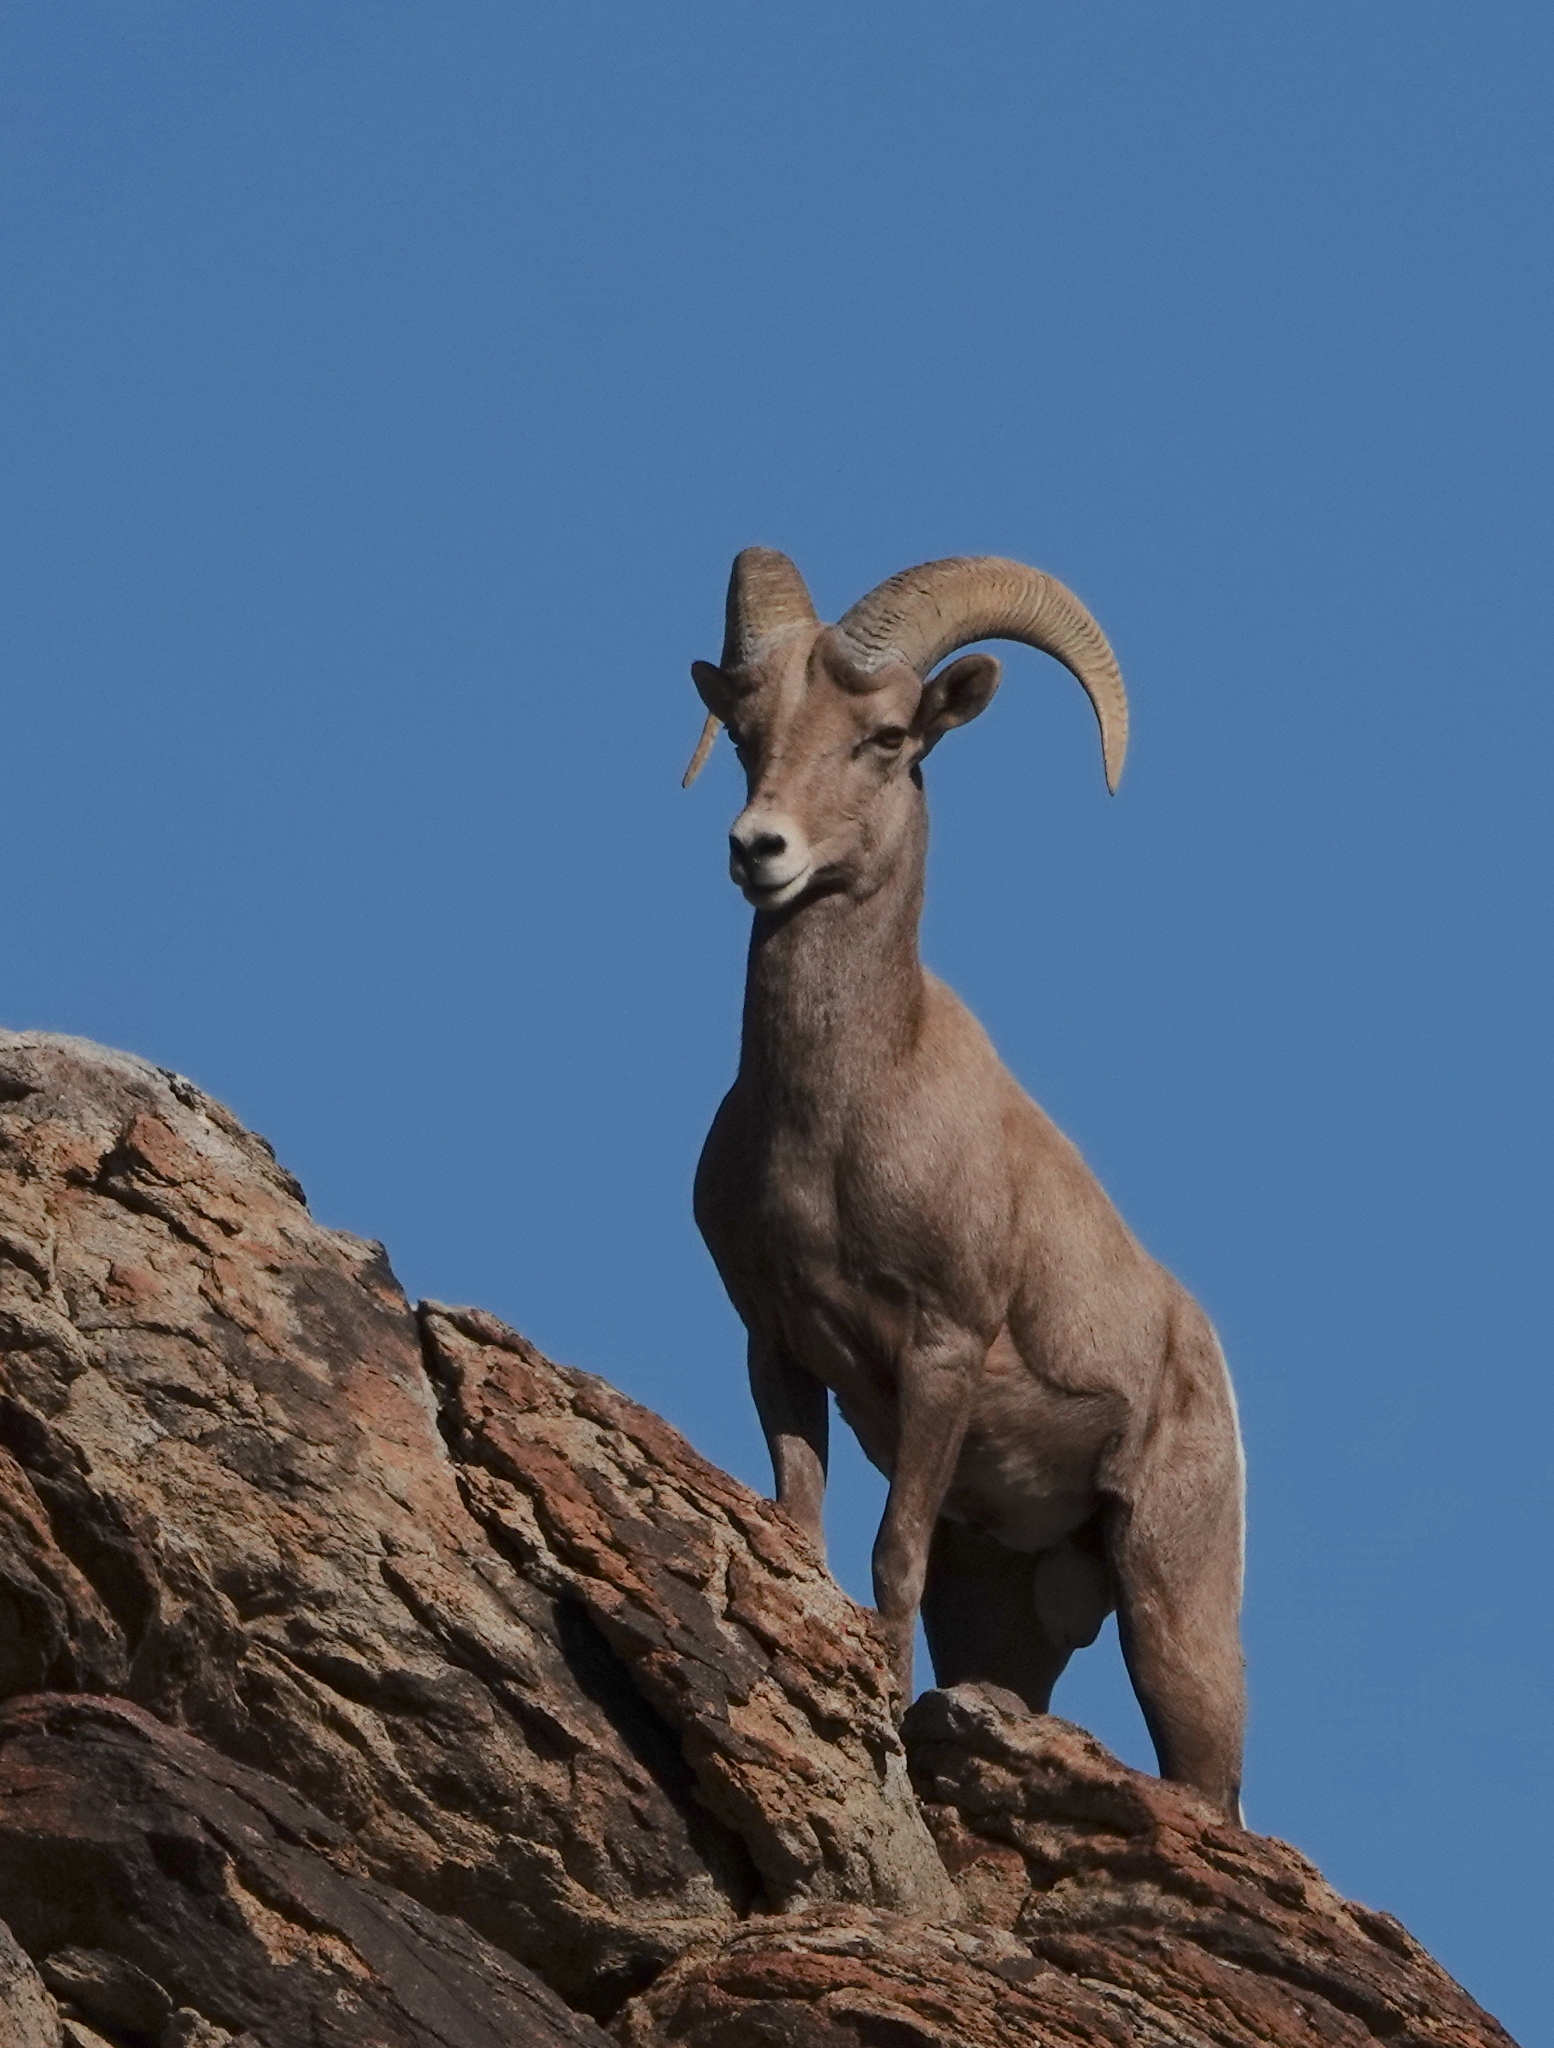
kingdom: Animalia
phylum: Chordata
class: Mammalia
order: Artiodactyla
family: Bovidae
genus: Ovis
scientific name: Ovis canadensis
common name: Bighorn sheep
